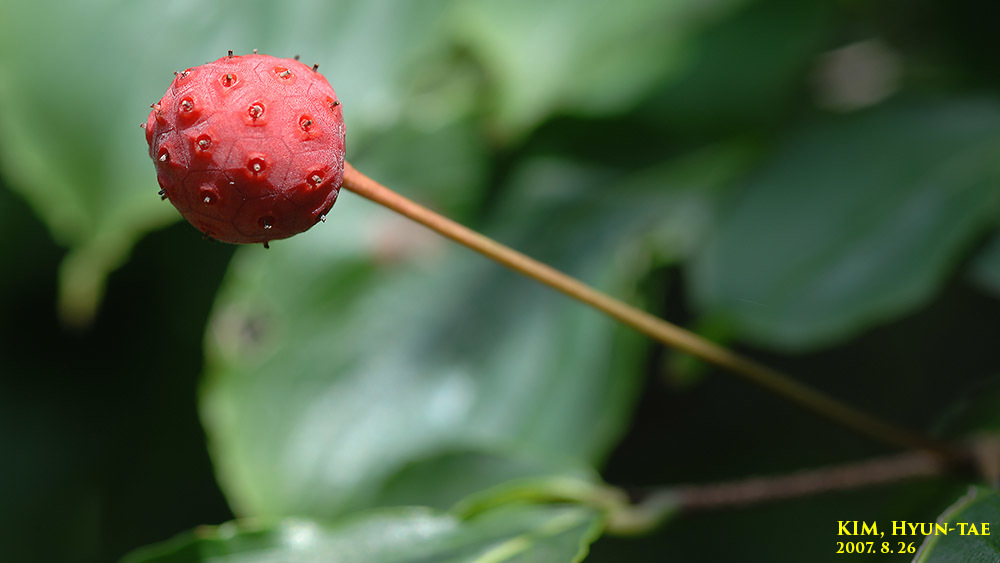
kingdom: Plantae
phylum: Tracheophyta
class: Magnoliopsida
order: Cornales
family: Cornaceae
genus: Cornus
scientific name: Cornus kousa
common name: Japanese dogwood
